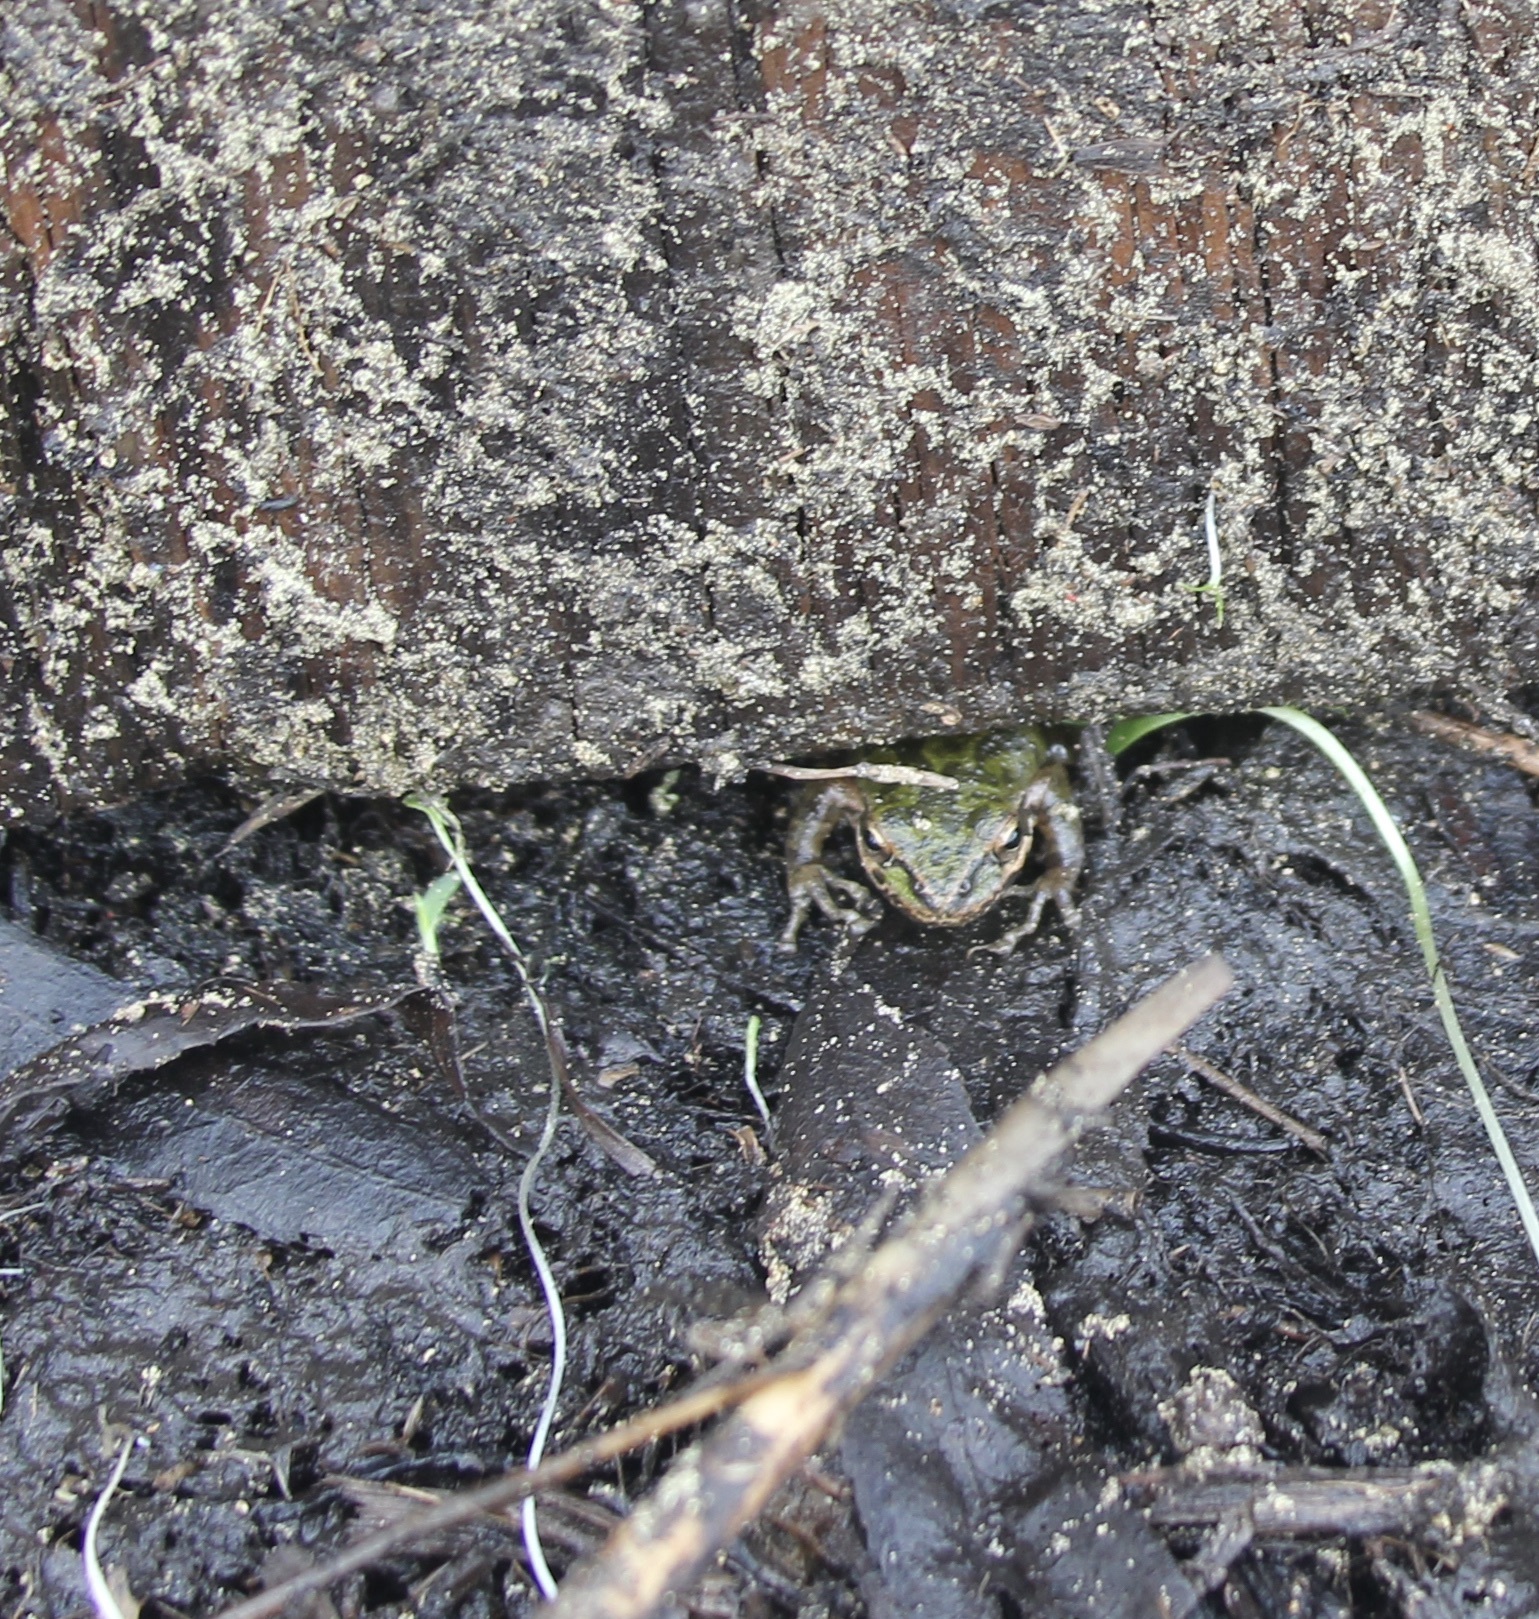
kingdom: Animalia
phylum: Chordata
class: Amphibia
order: Anura
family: Hylidae
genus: Pseudacris
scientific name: Pseudacris regilla
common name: Pacific chorus frog
